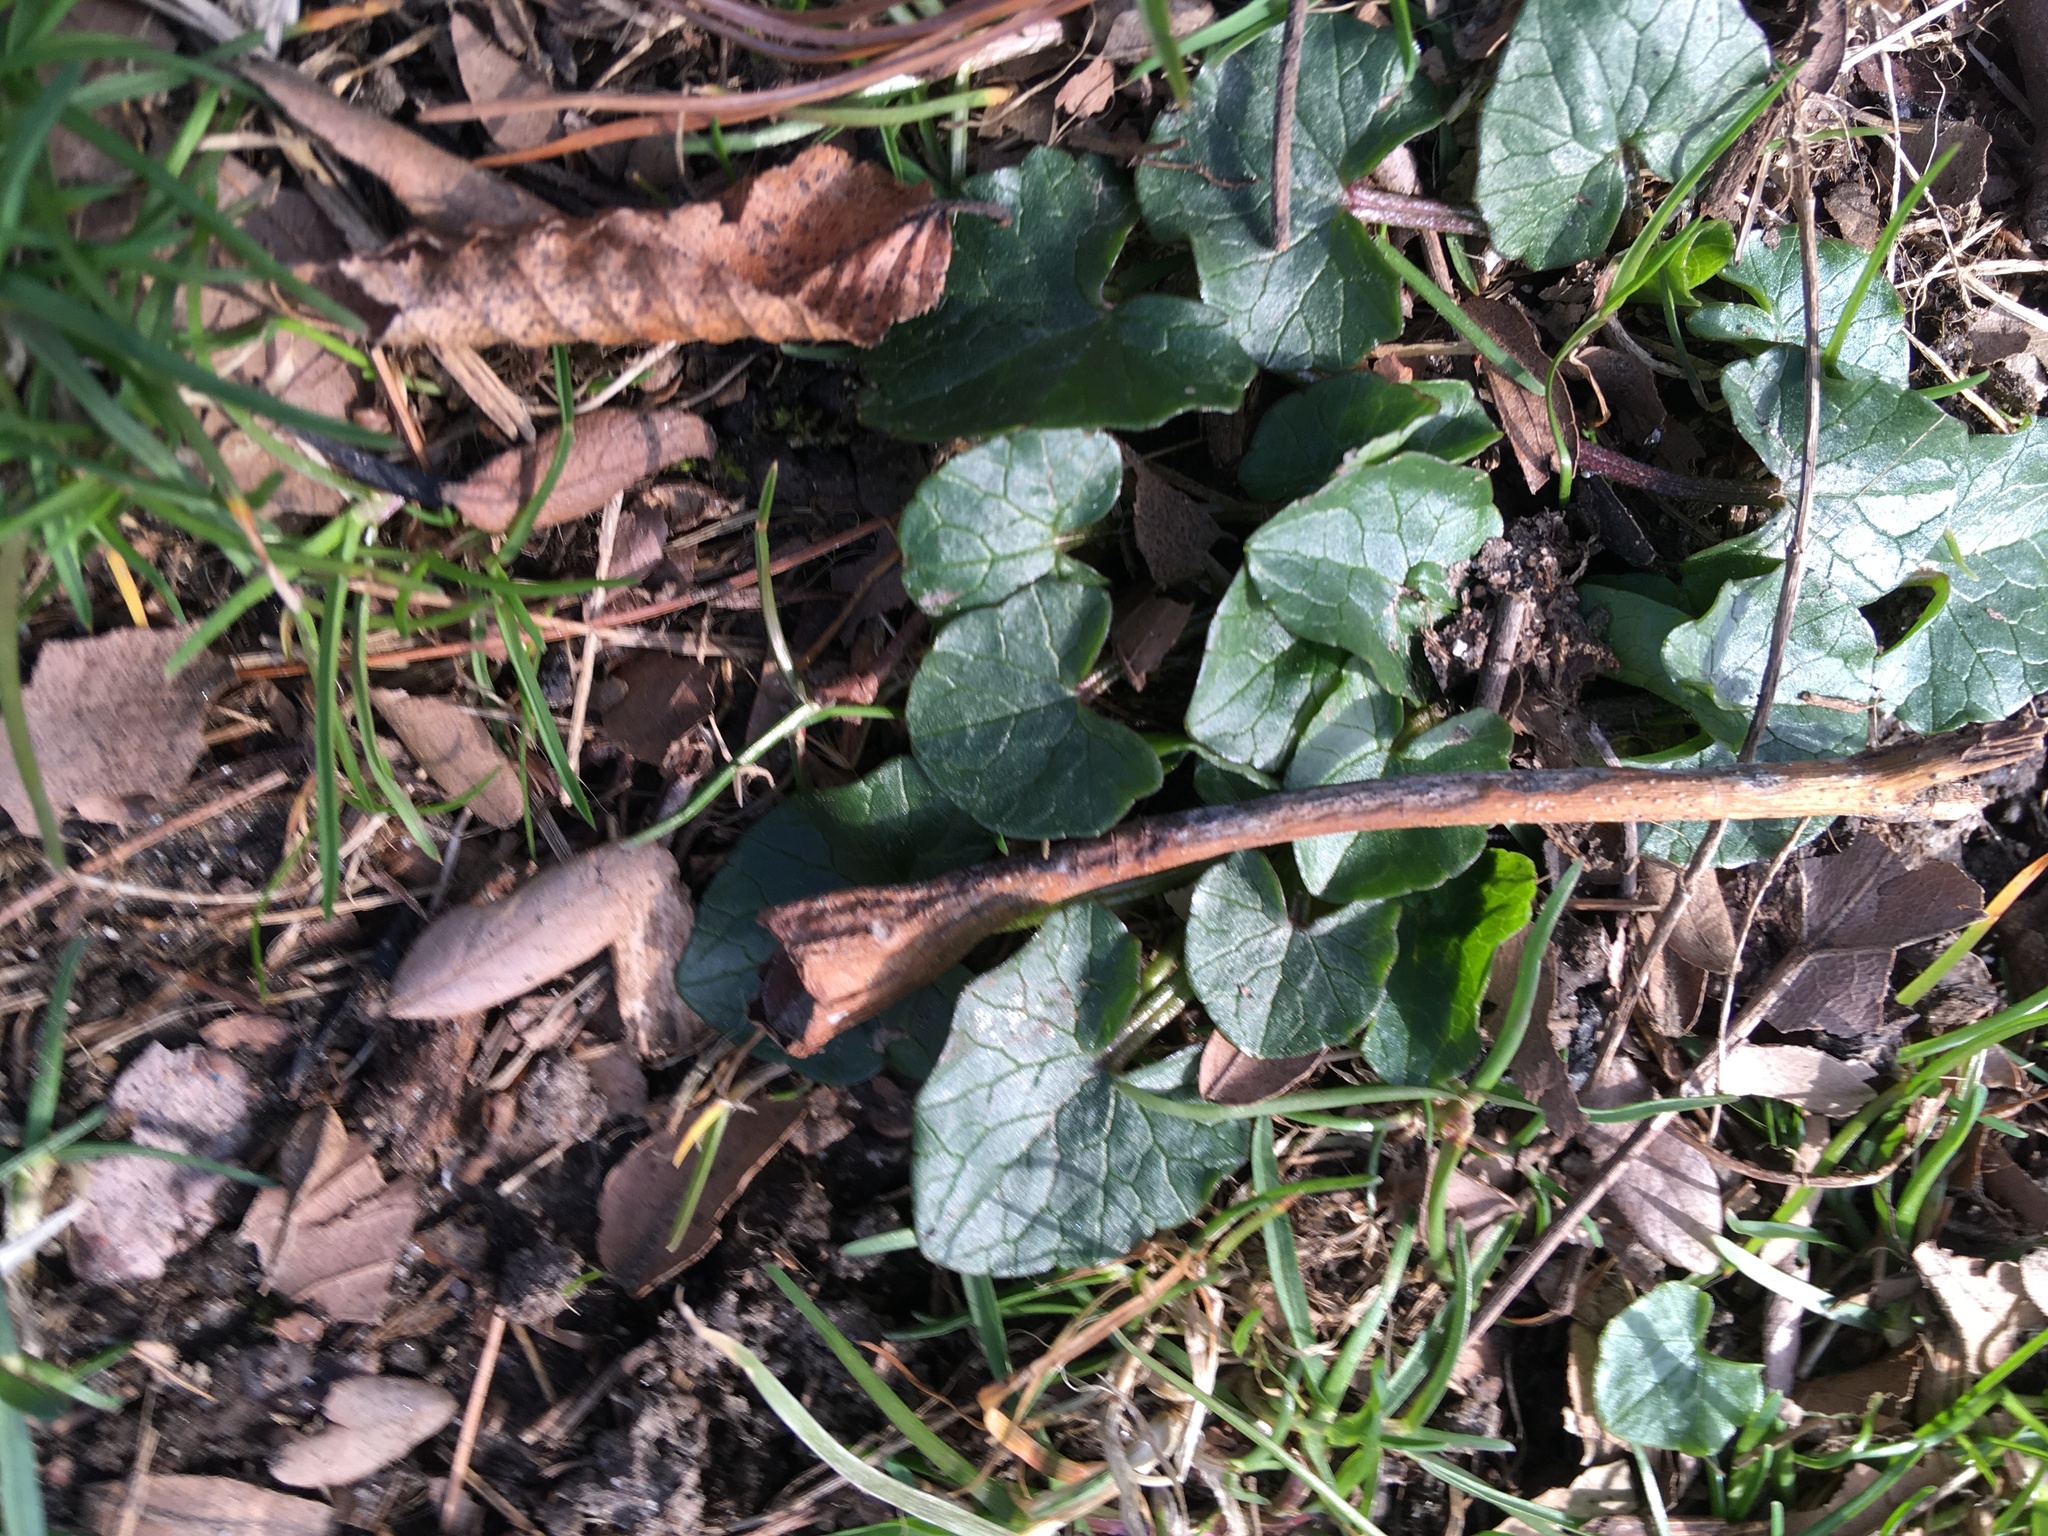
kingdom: Plantae
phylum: Tracheophyta
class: Magnoliopsida
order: Ranunculales
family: Ranunculaceae
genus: Ficaria
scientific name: Ficaria verna
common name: Lesser celandine
